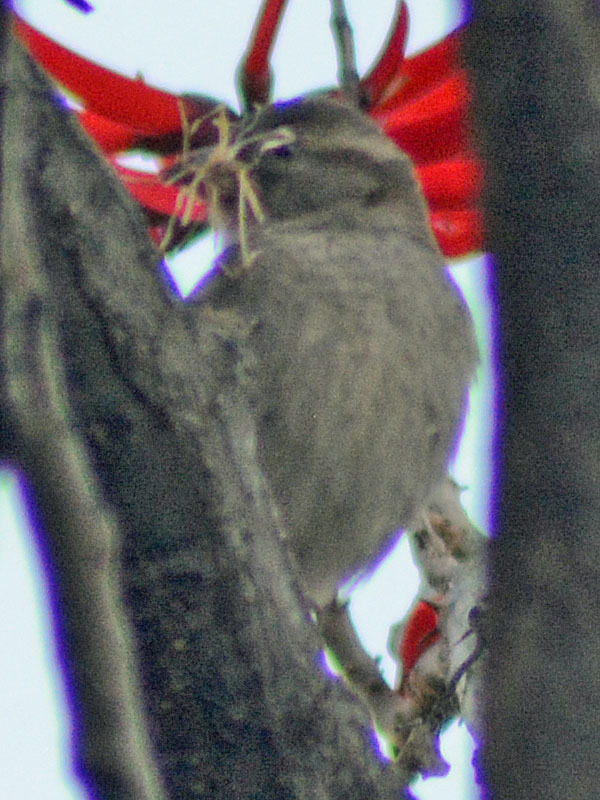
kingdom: Animalia
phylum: Chordata
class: Aves
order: Passeriformes
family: Passeridae
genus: Passer
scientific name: Passer domesticus
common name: House sparrow
